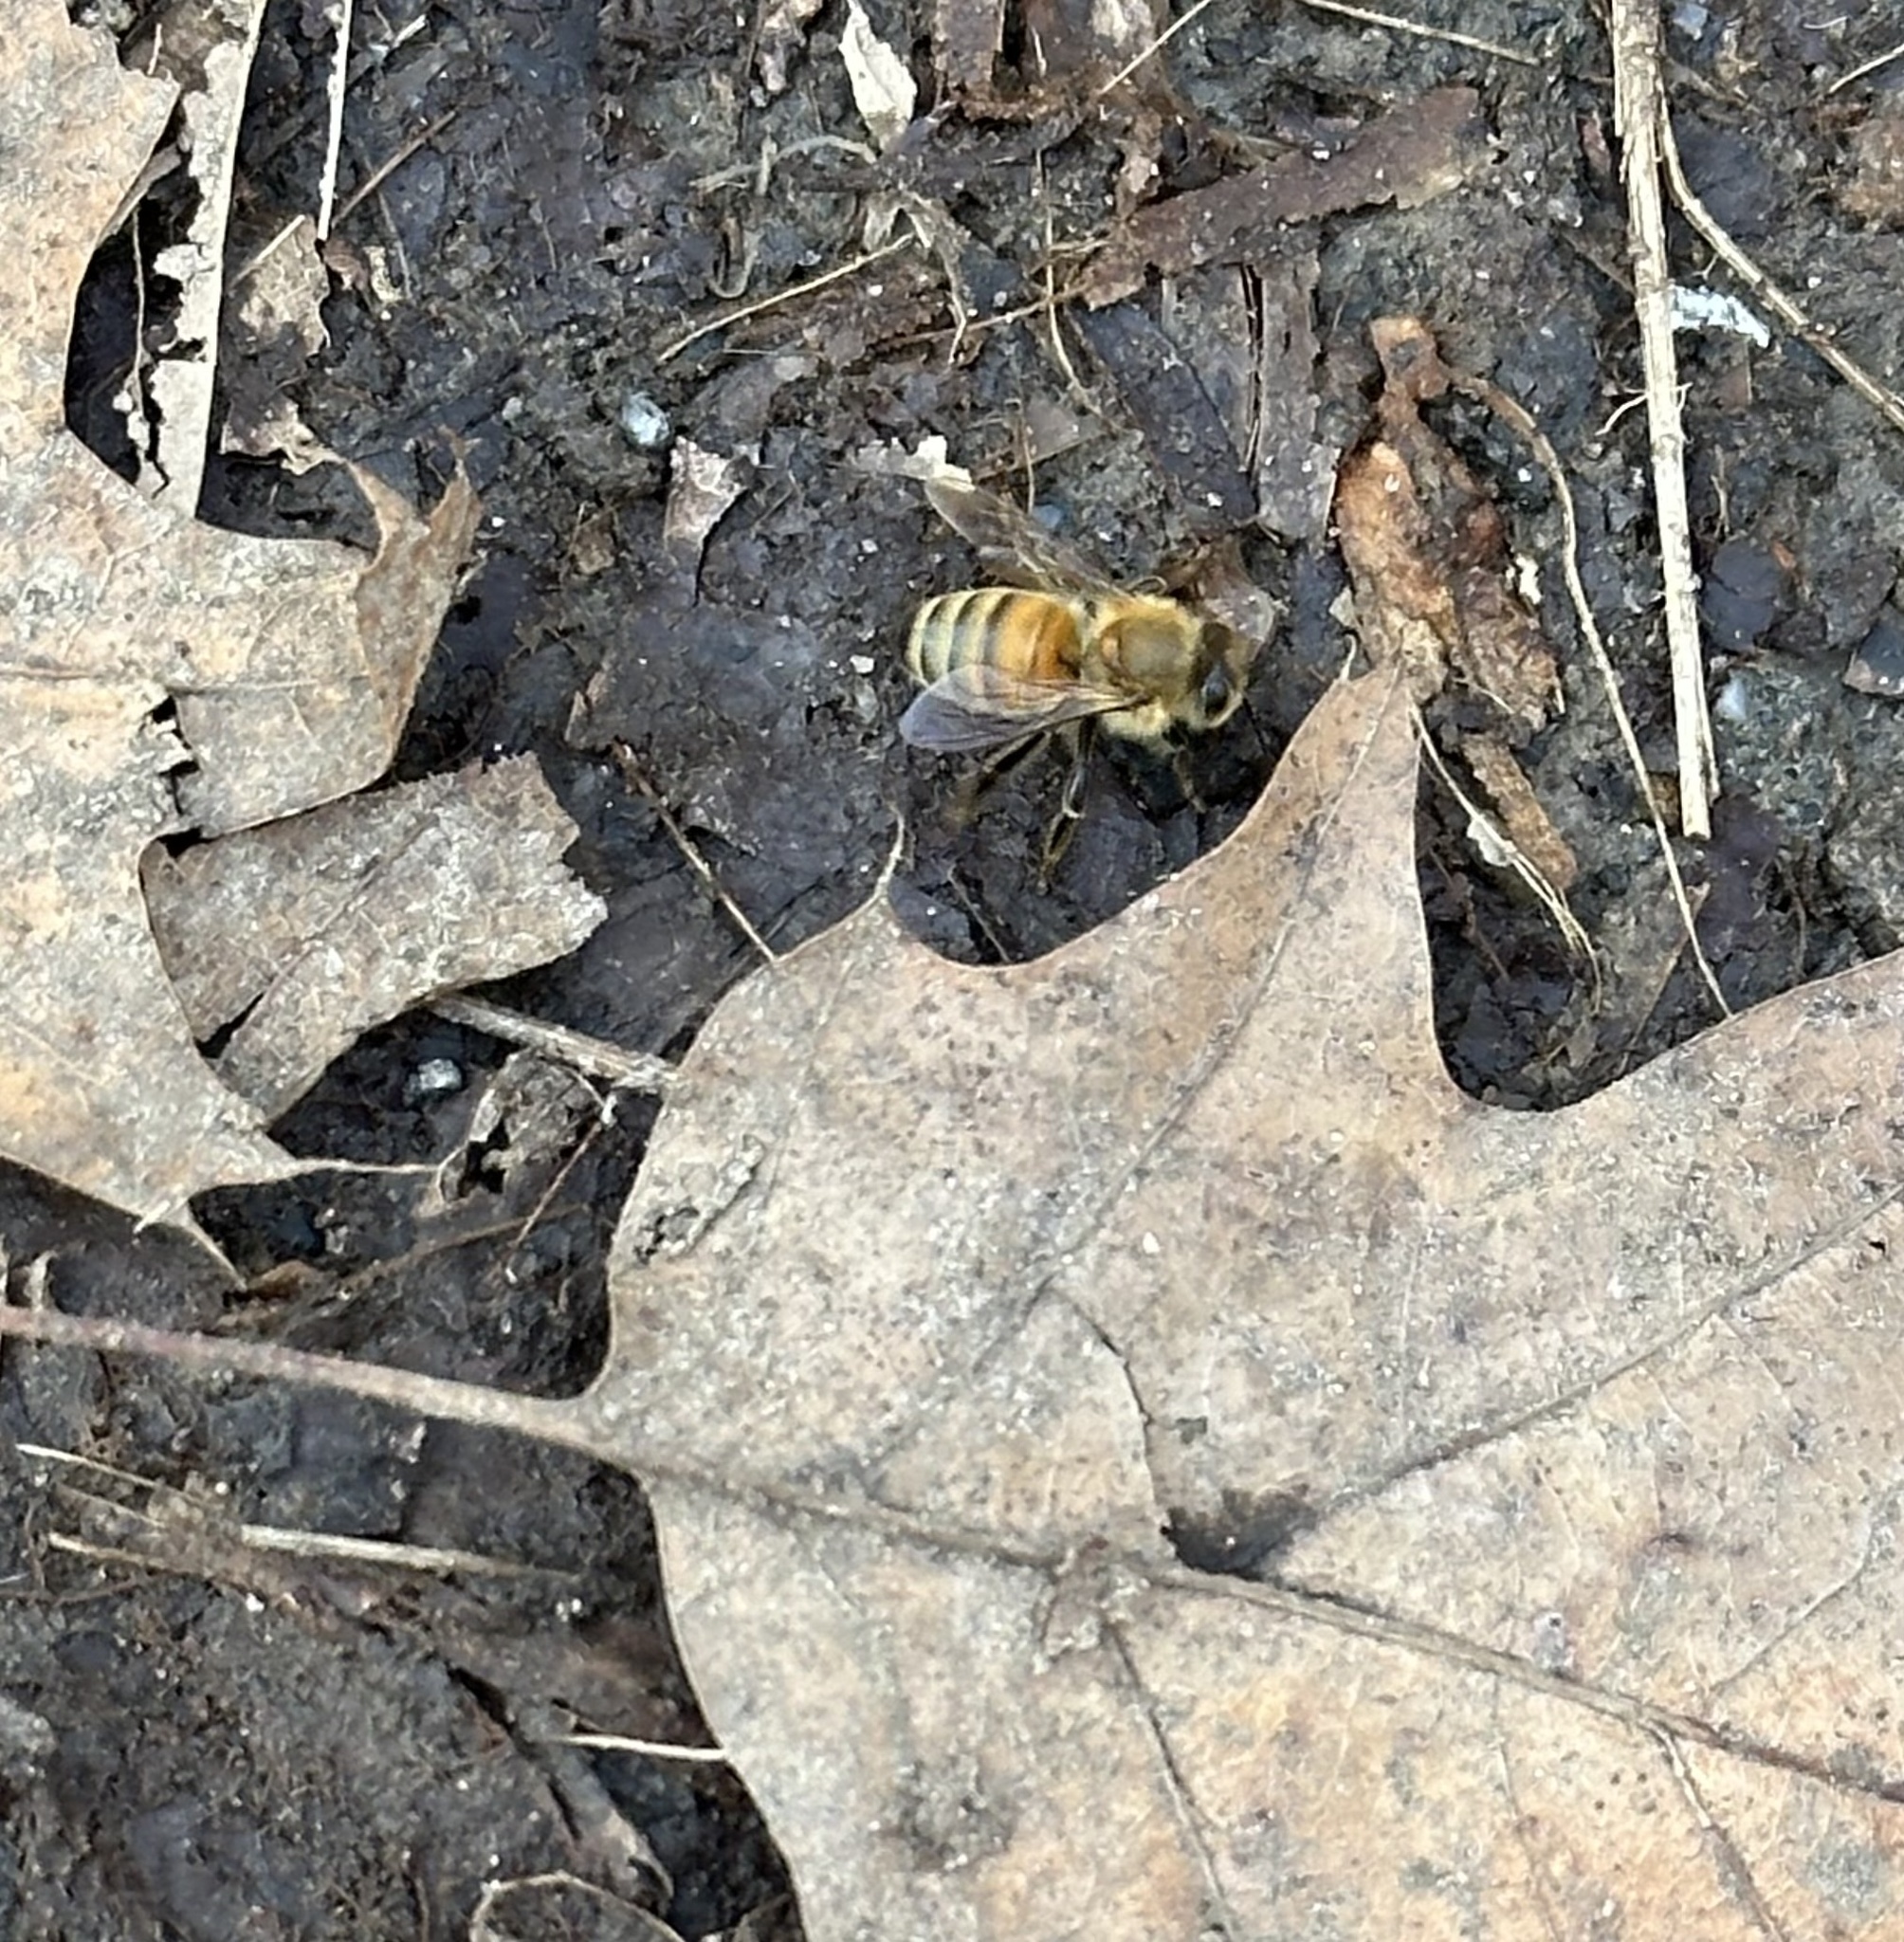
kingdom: Animalia
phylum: Arthropoda
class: Insecta
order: Hymenoptera
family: Apidae
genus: Apis
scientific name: Apis mellifera
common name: Honey bee
